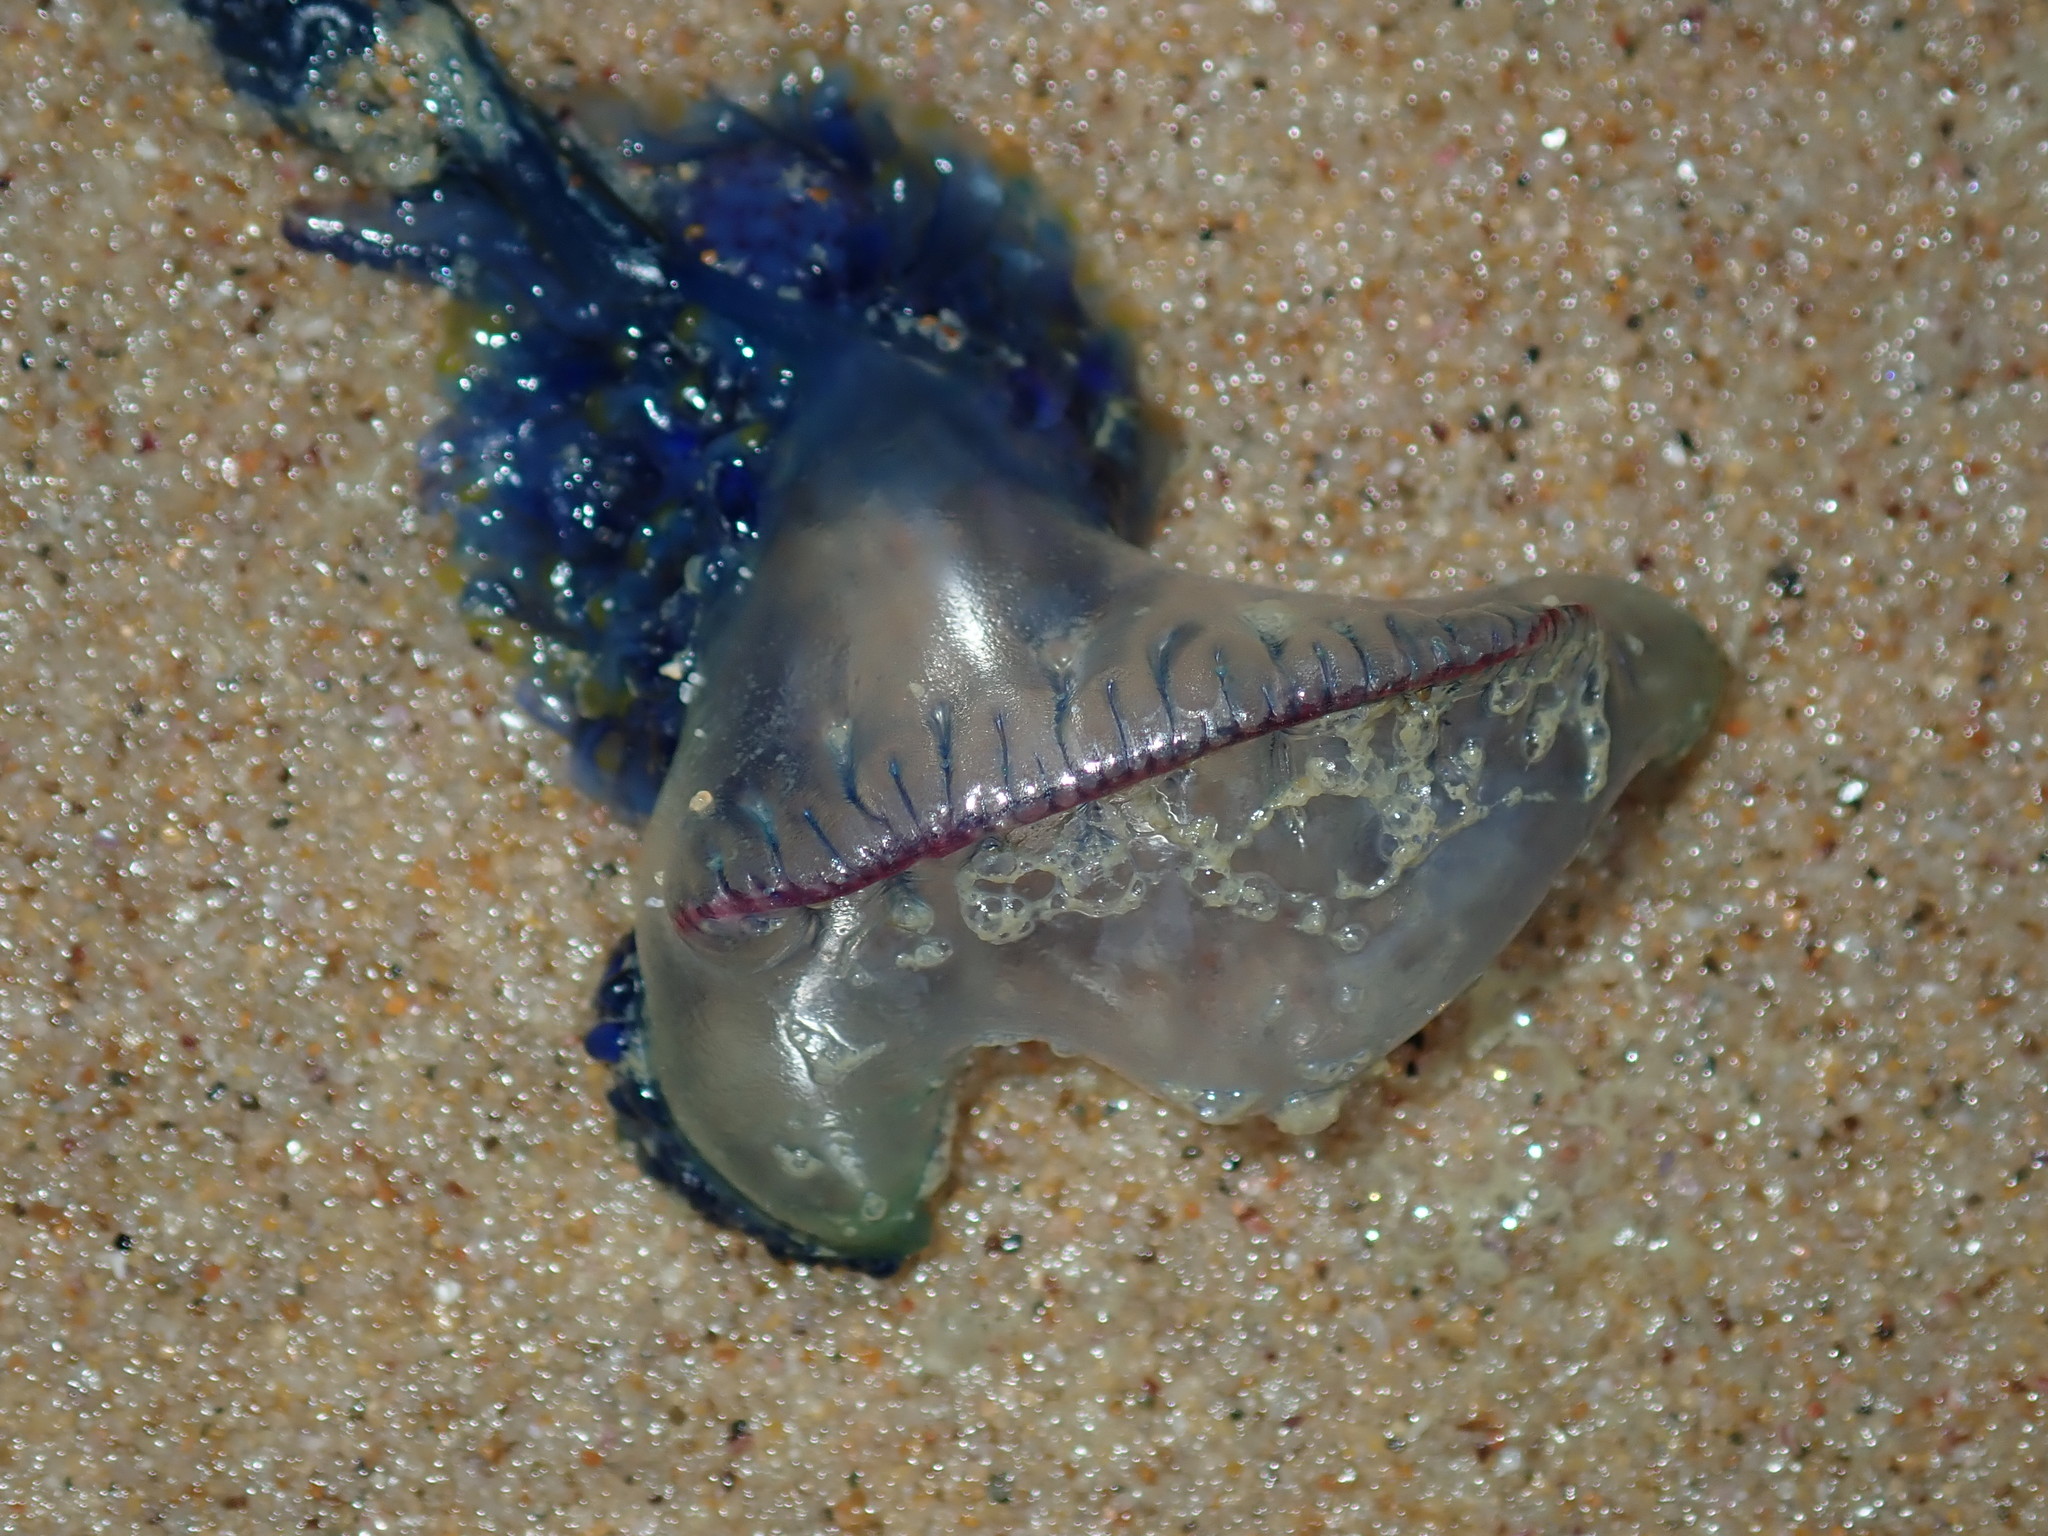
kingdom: Animalia
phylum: Cnidaria
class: Hydrozoa
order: Siphonophorae
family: Physaliidae
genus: Physalia
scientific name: Physalia physalis
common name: Portuguese man-of-war
